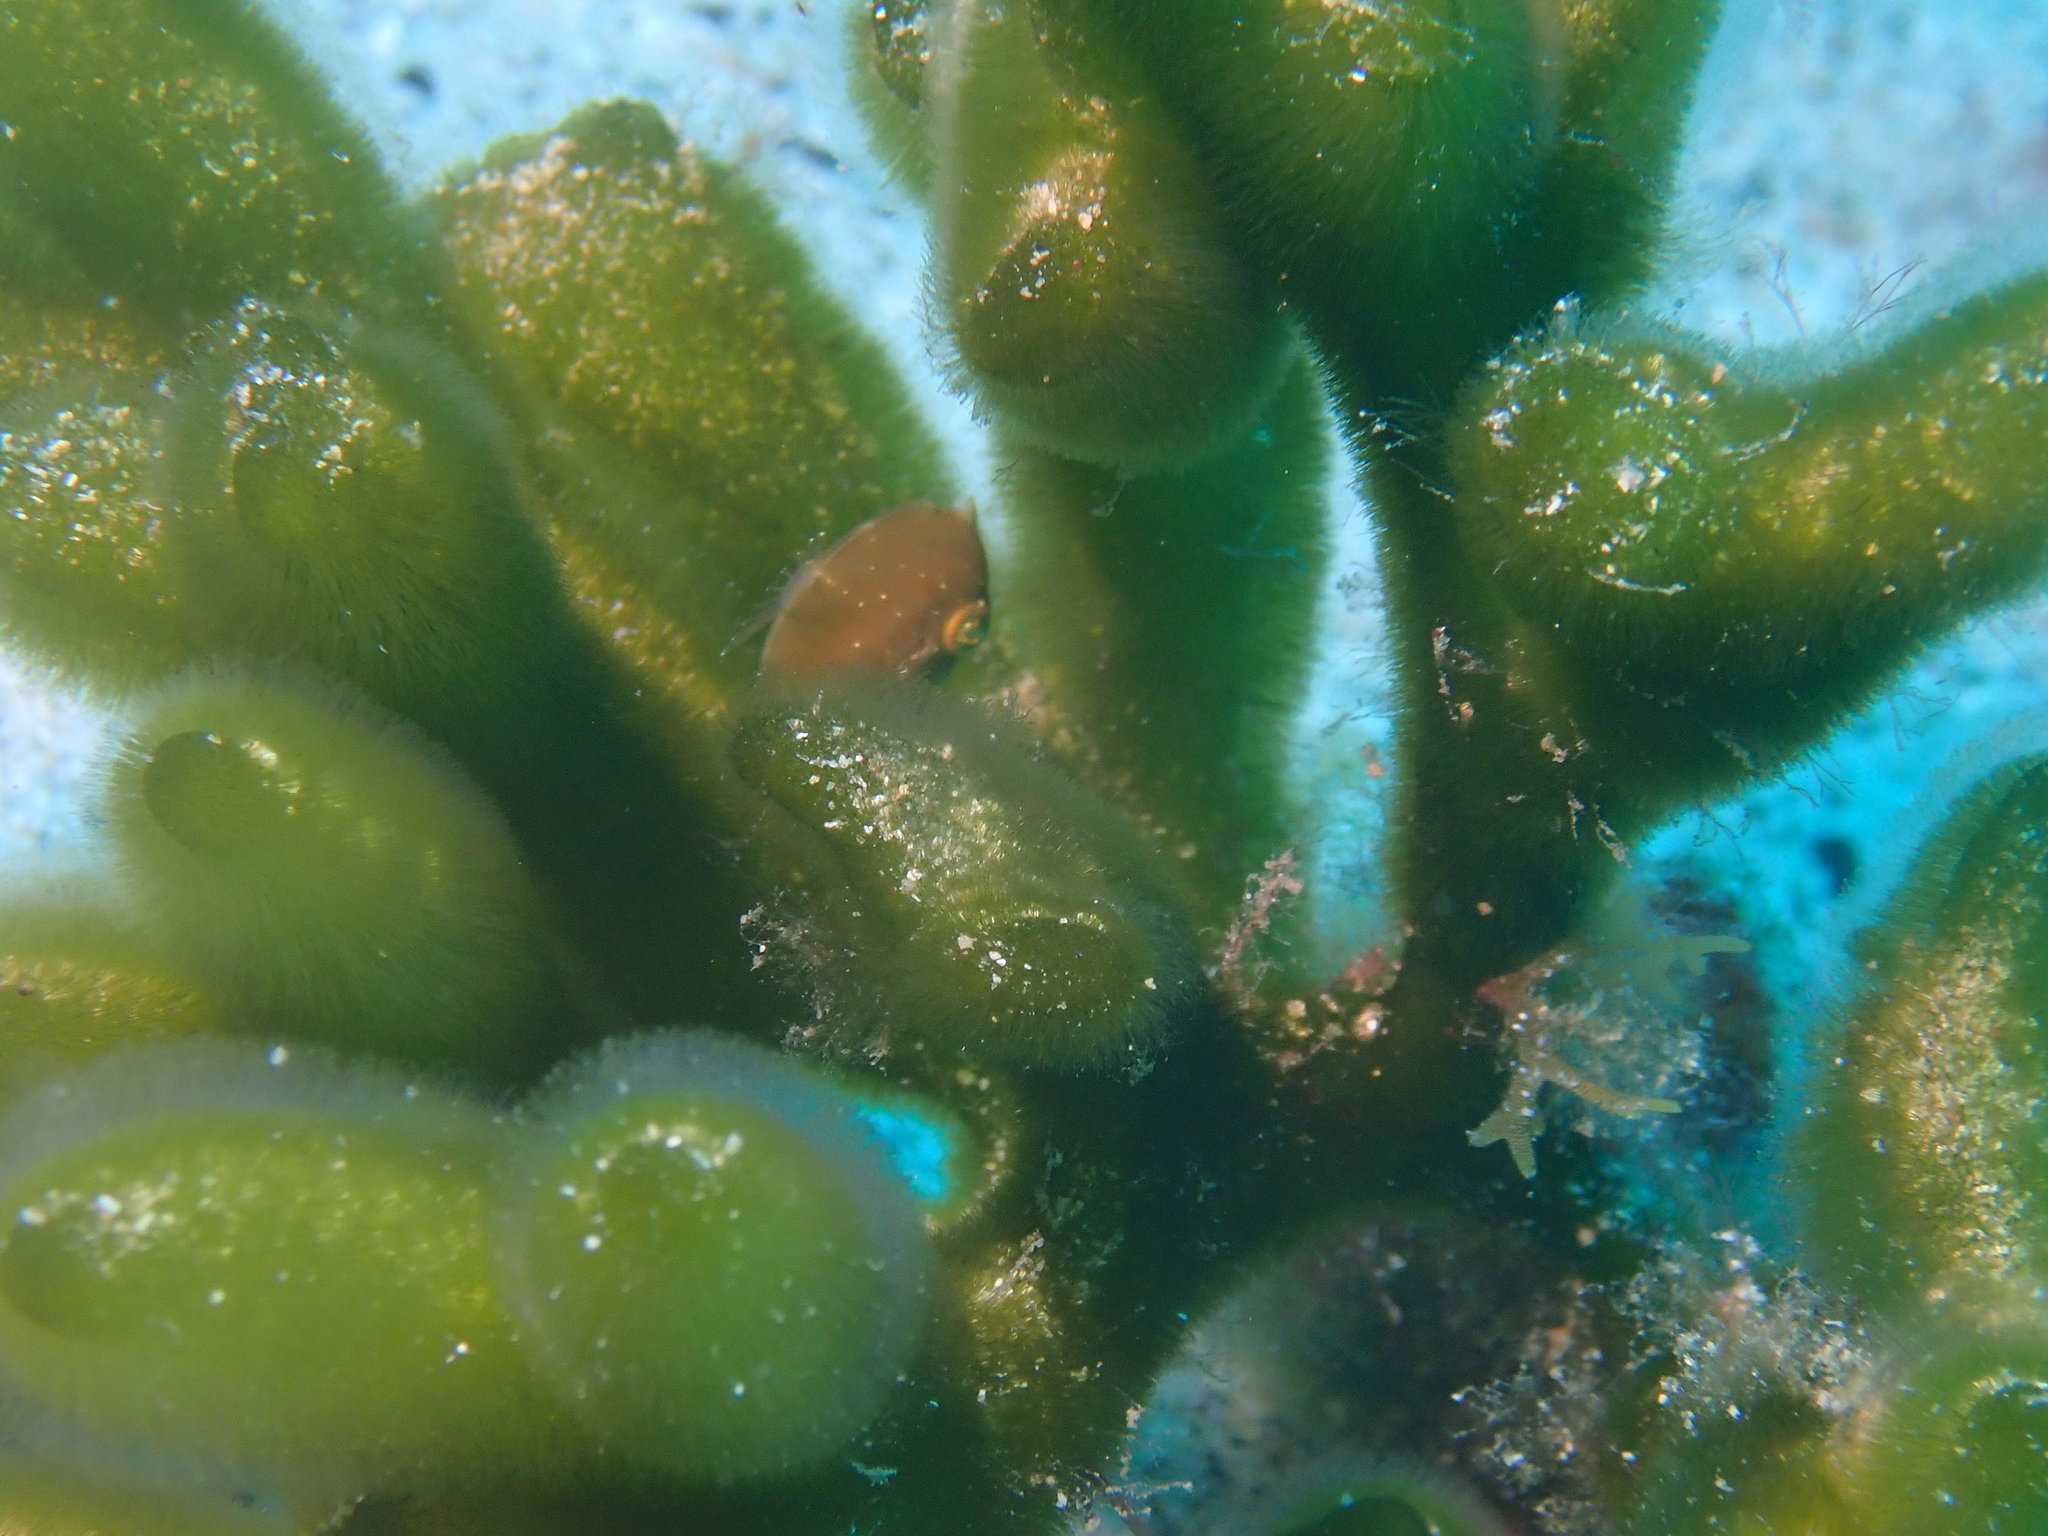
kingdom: Animalia
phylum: Chordata
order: Tetraodontiformes
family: Monacanthidae
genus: Brachaluteres
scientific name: Brachaluteres taylori
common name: Pigmy leatherjacket
